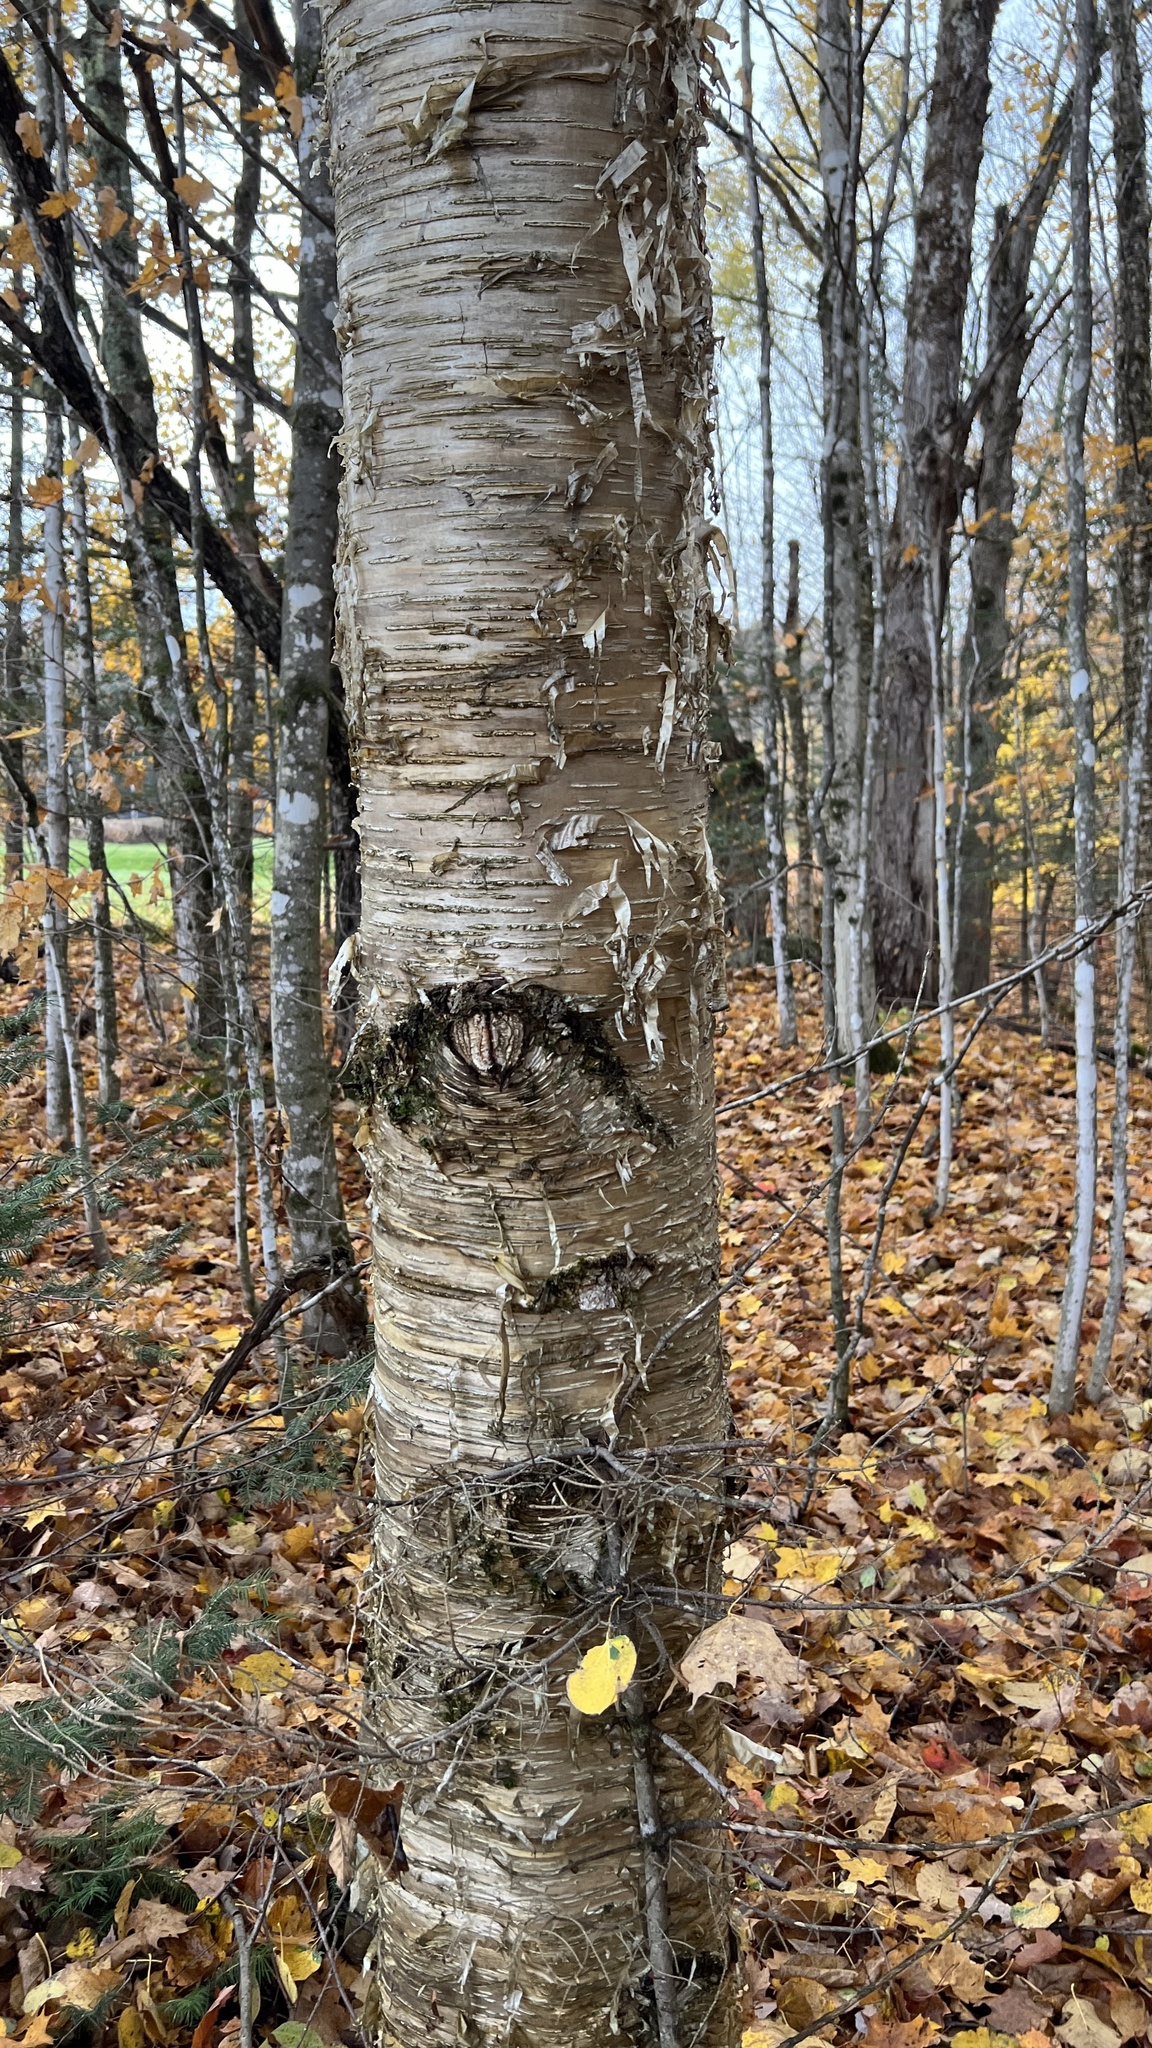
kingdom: Plantae
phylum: Tracheophyta
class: Magnoliopsida
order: Fagales
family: Betulaceae
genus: Betula
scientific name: Betula alleghaniensis
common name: Yellow birch
